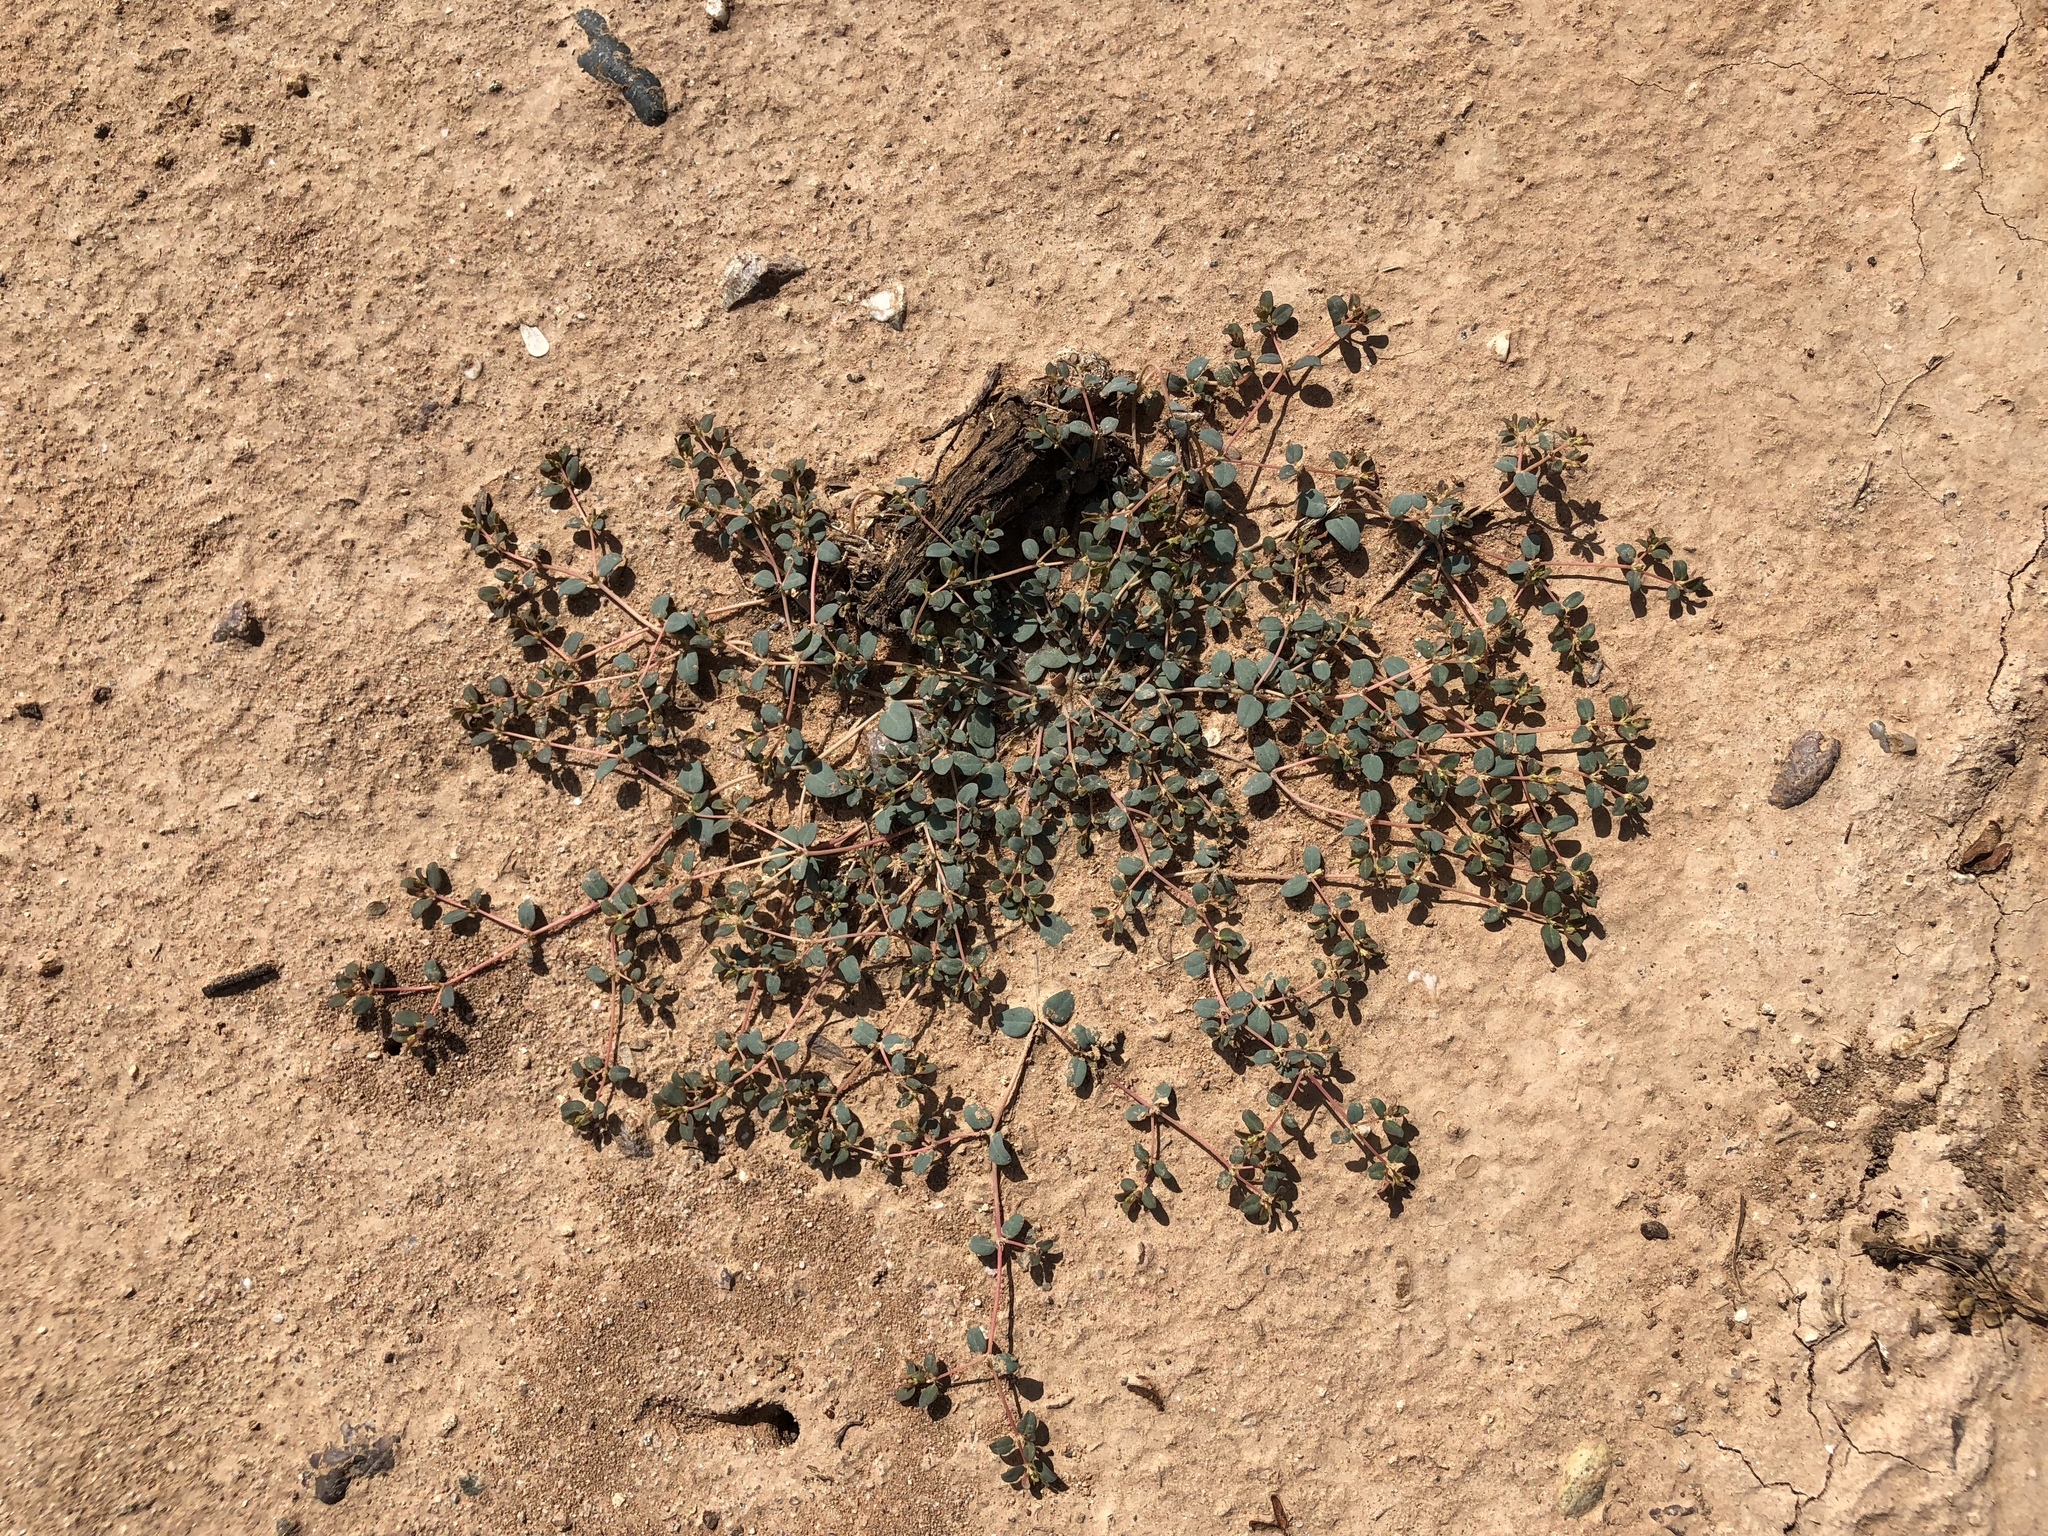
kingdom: Plantae
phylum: Tracheophyta
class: Magnoliopsida
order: Malpighiales
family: Euphorbiaceae
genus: Euphorbia
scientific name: Euphorbia micromera
